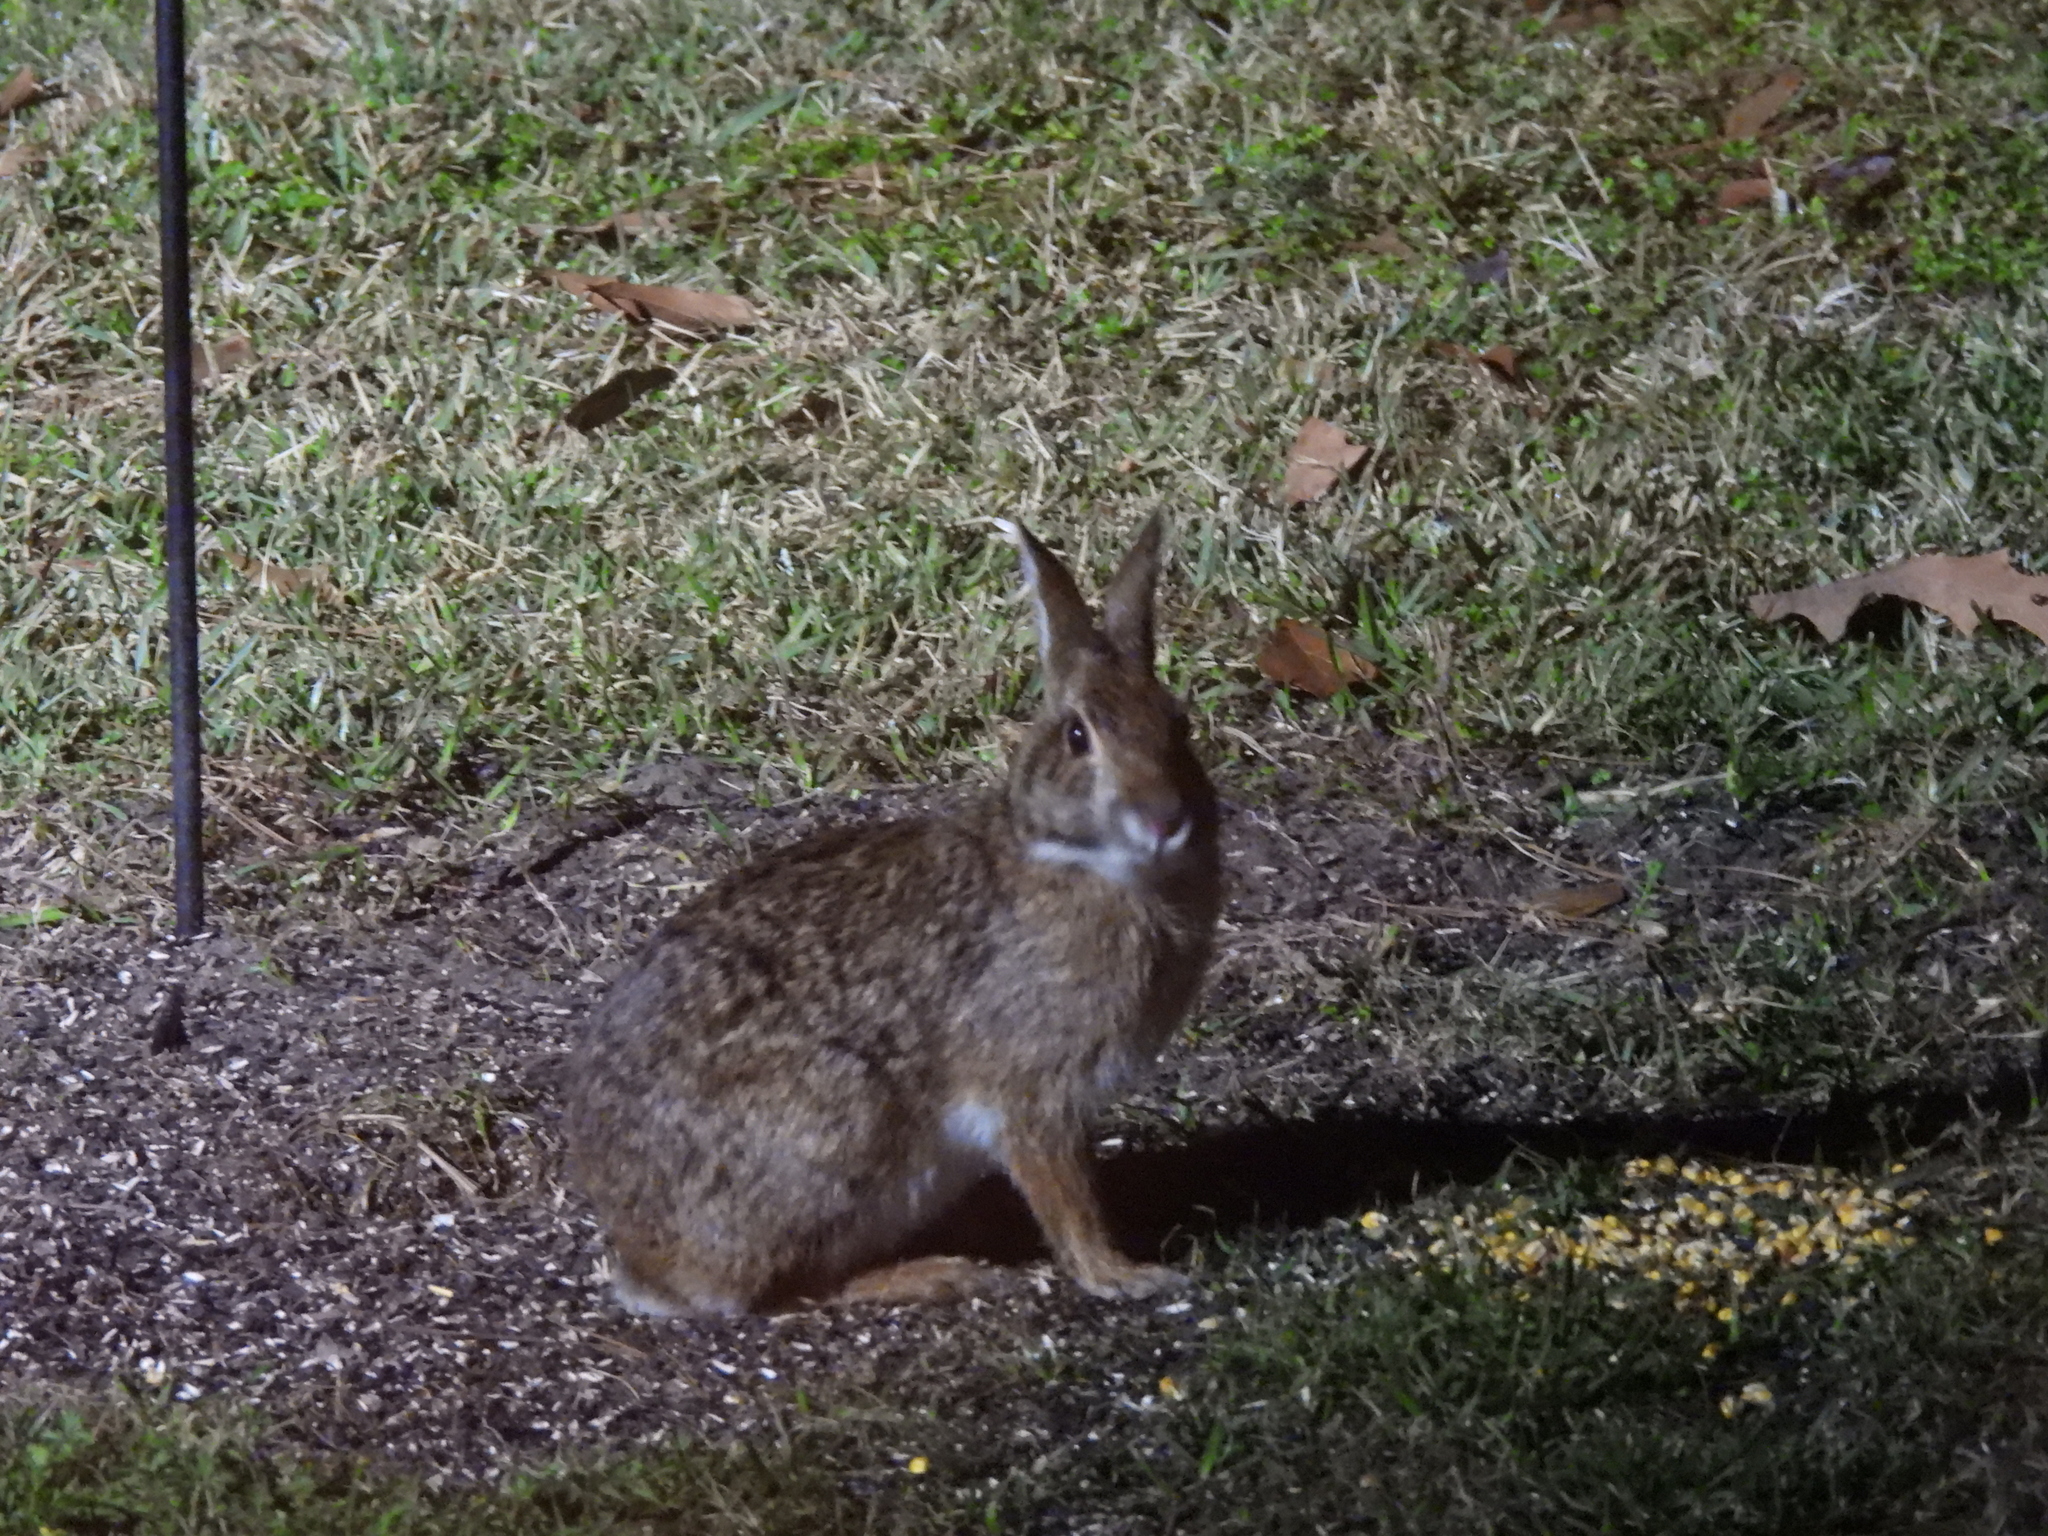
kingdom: Animalia
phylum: Chordata
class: Mammalia
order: Lagomorpha
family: Leporidae
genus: Sylvilagus
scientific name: Sylvilagus aquaticus
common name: Swamp rabbit
